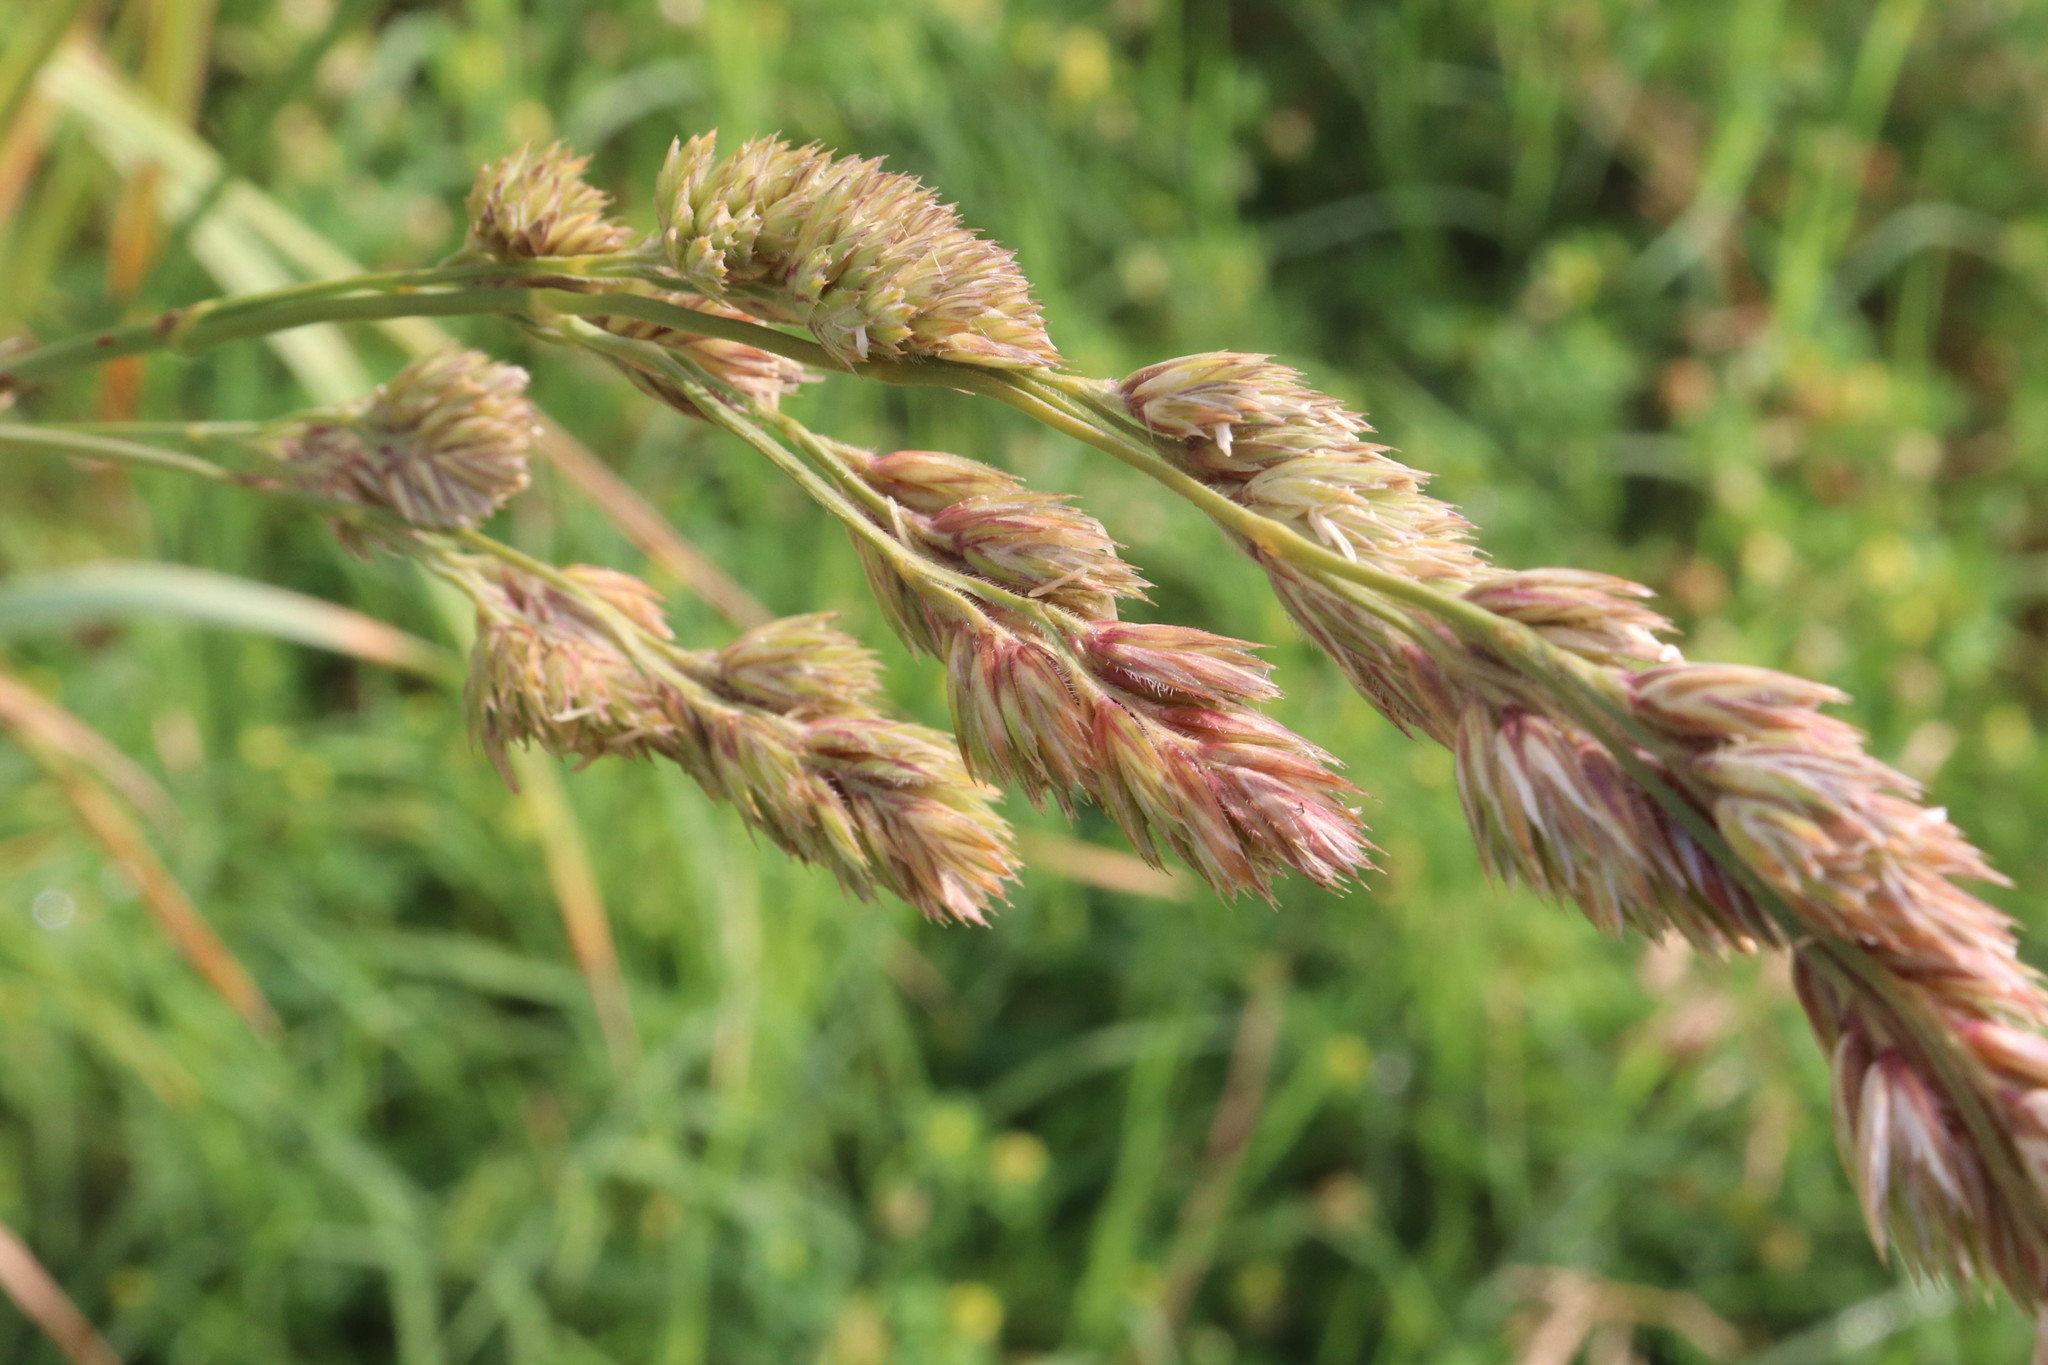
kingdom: Plantae
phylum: Tracheophyta
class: Liliopsida
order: Poales
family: Poaceae
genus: Dactylis
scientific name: Dactylis glomerata
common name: Orchardgrass
